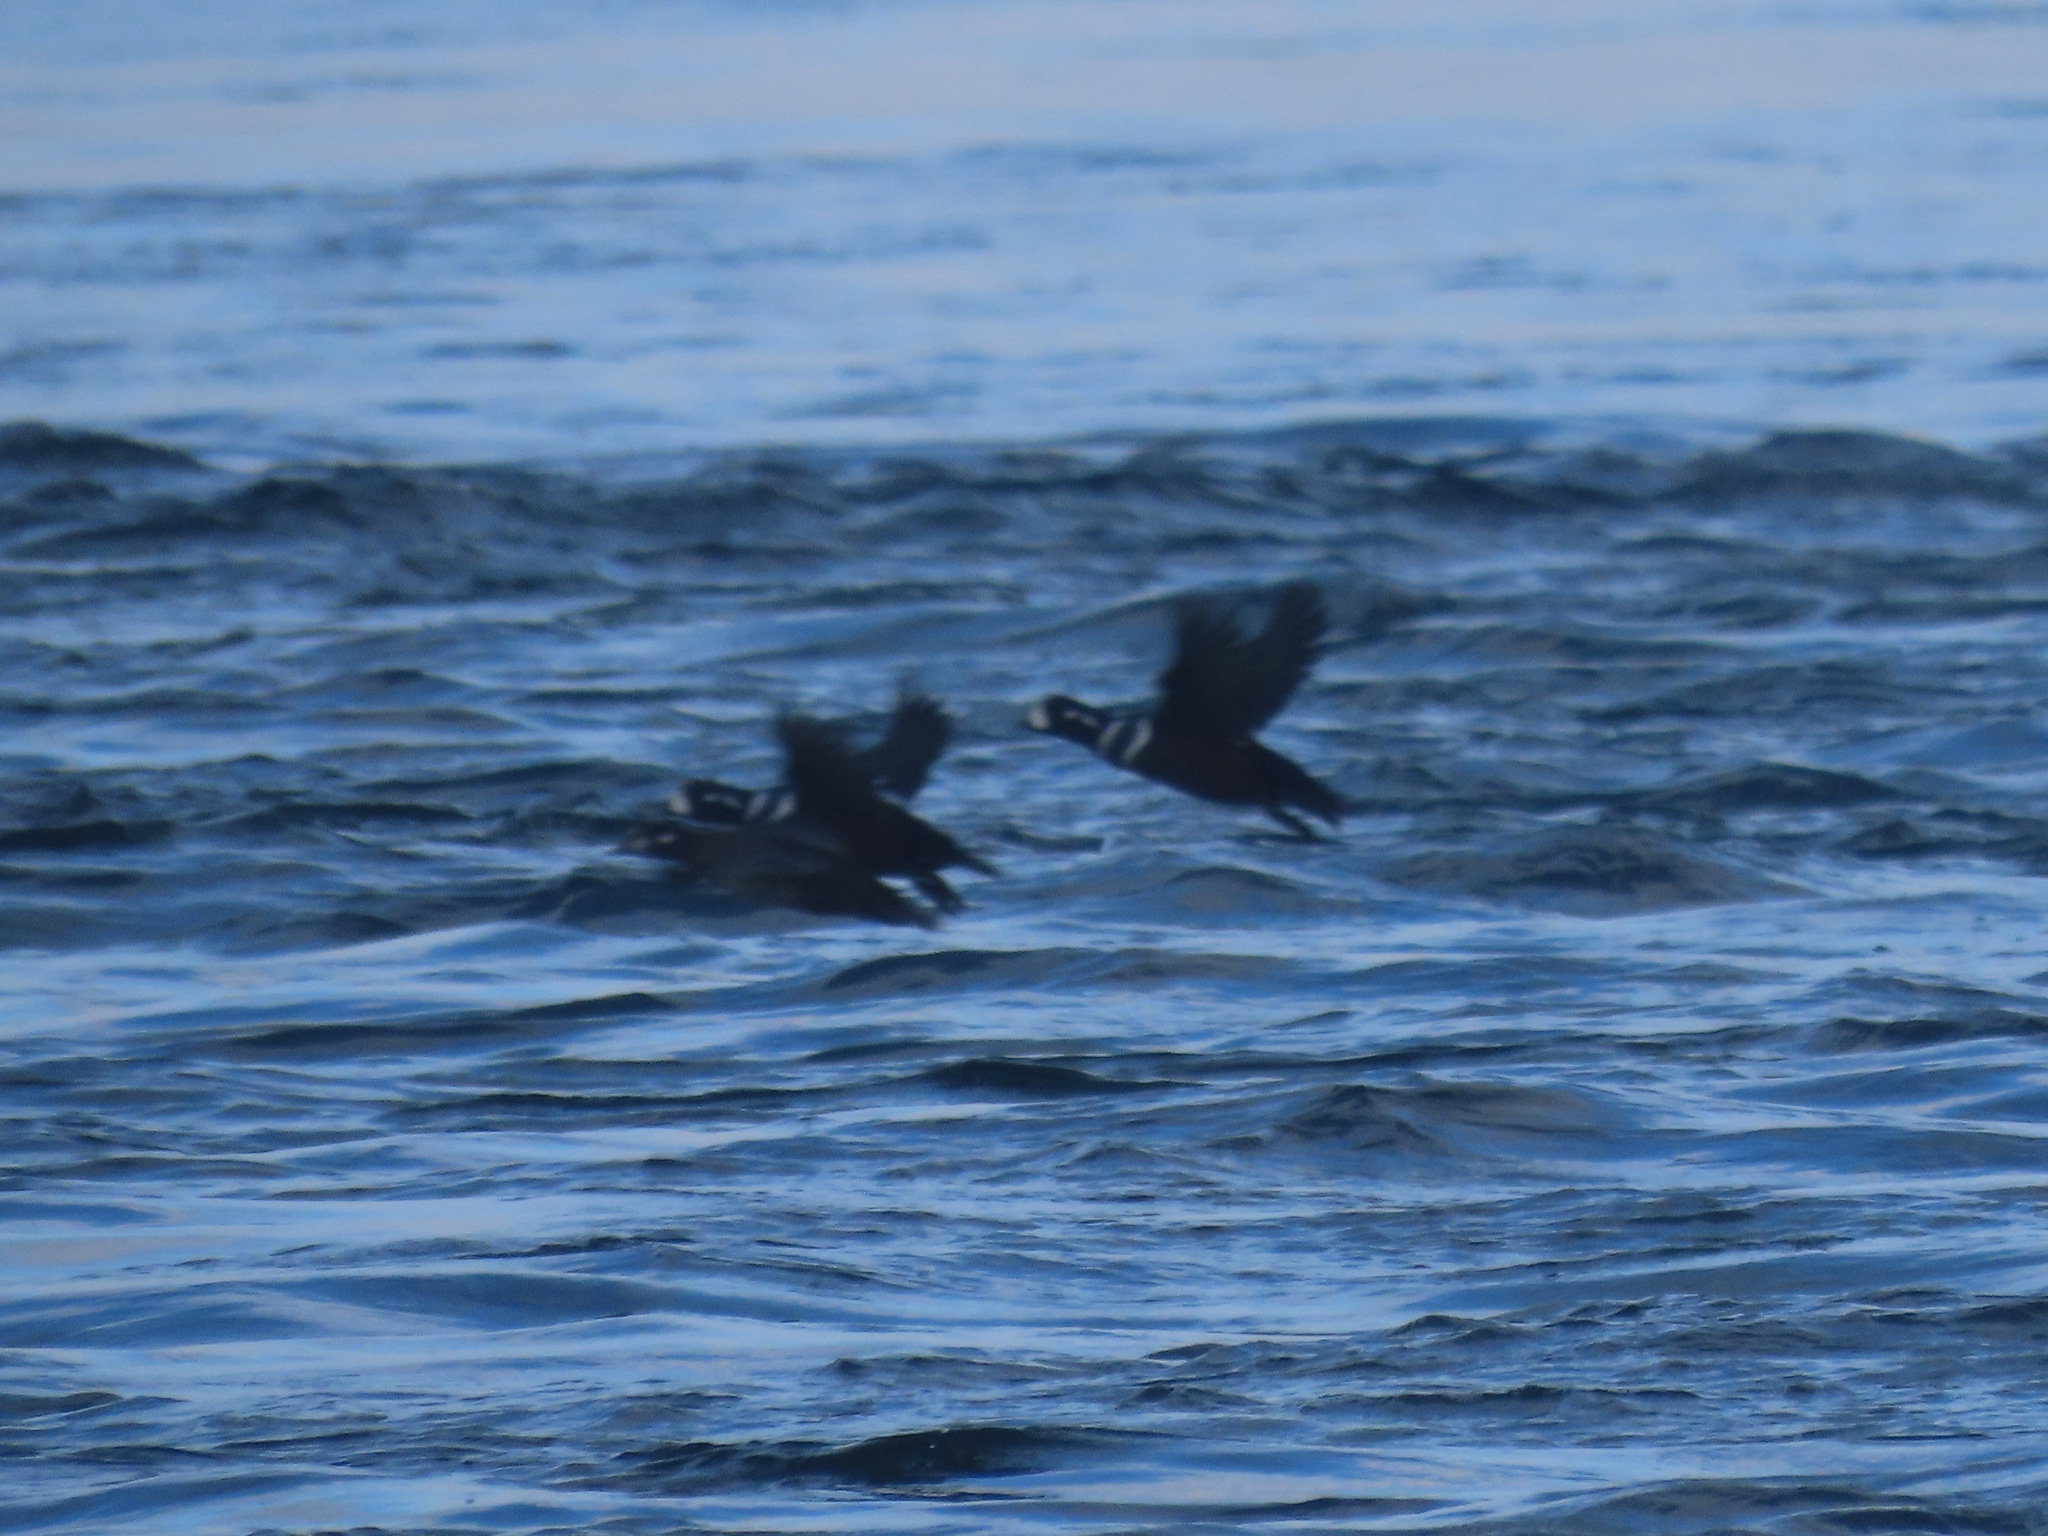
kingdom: Animalia
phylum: Chordata
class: Aves
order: Anseriformes
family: Anatidae
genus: Histrionicus
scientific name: Histrionicus histrionicus
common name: Harlequin duck
